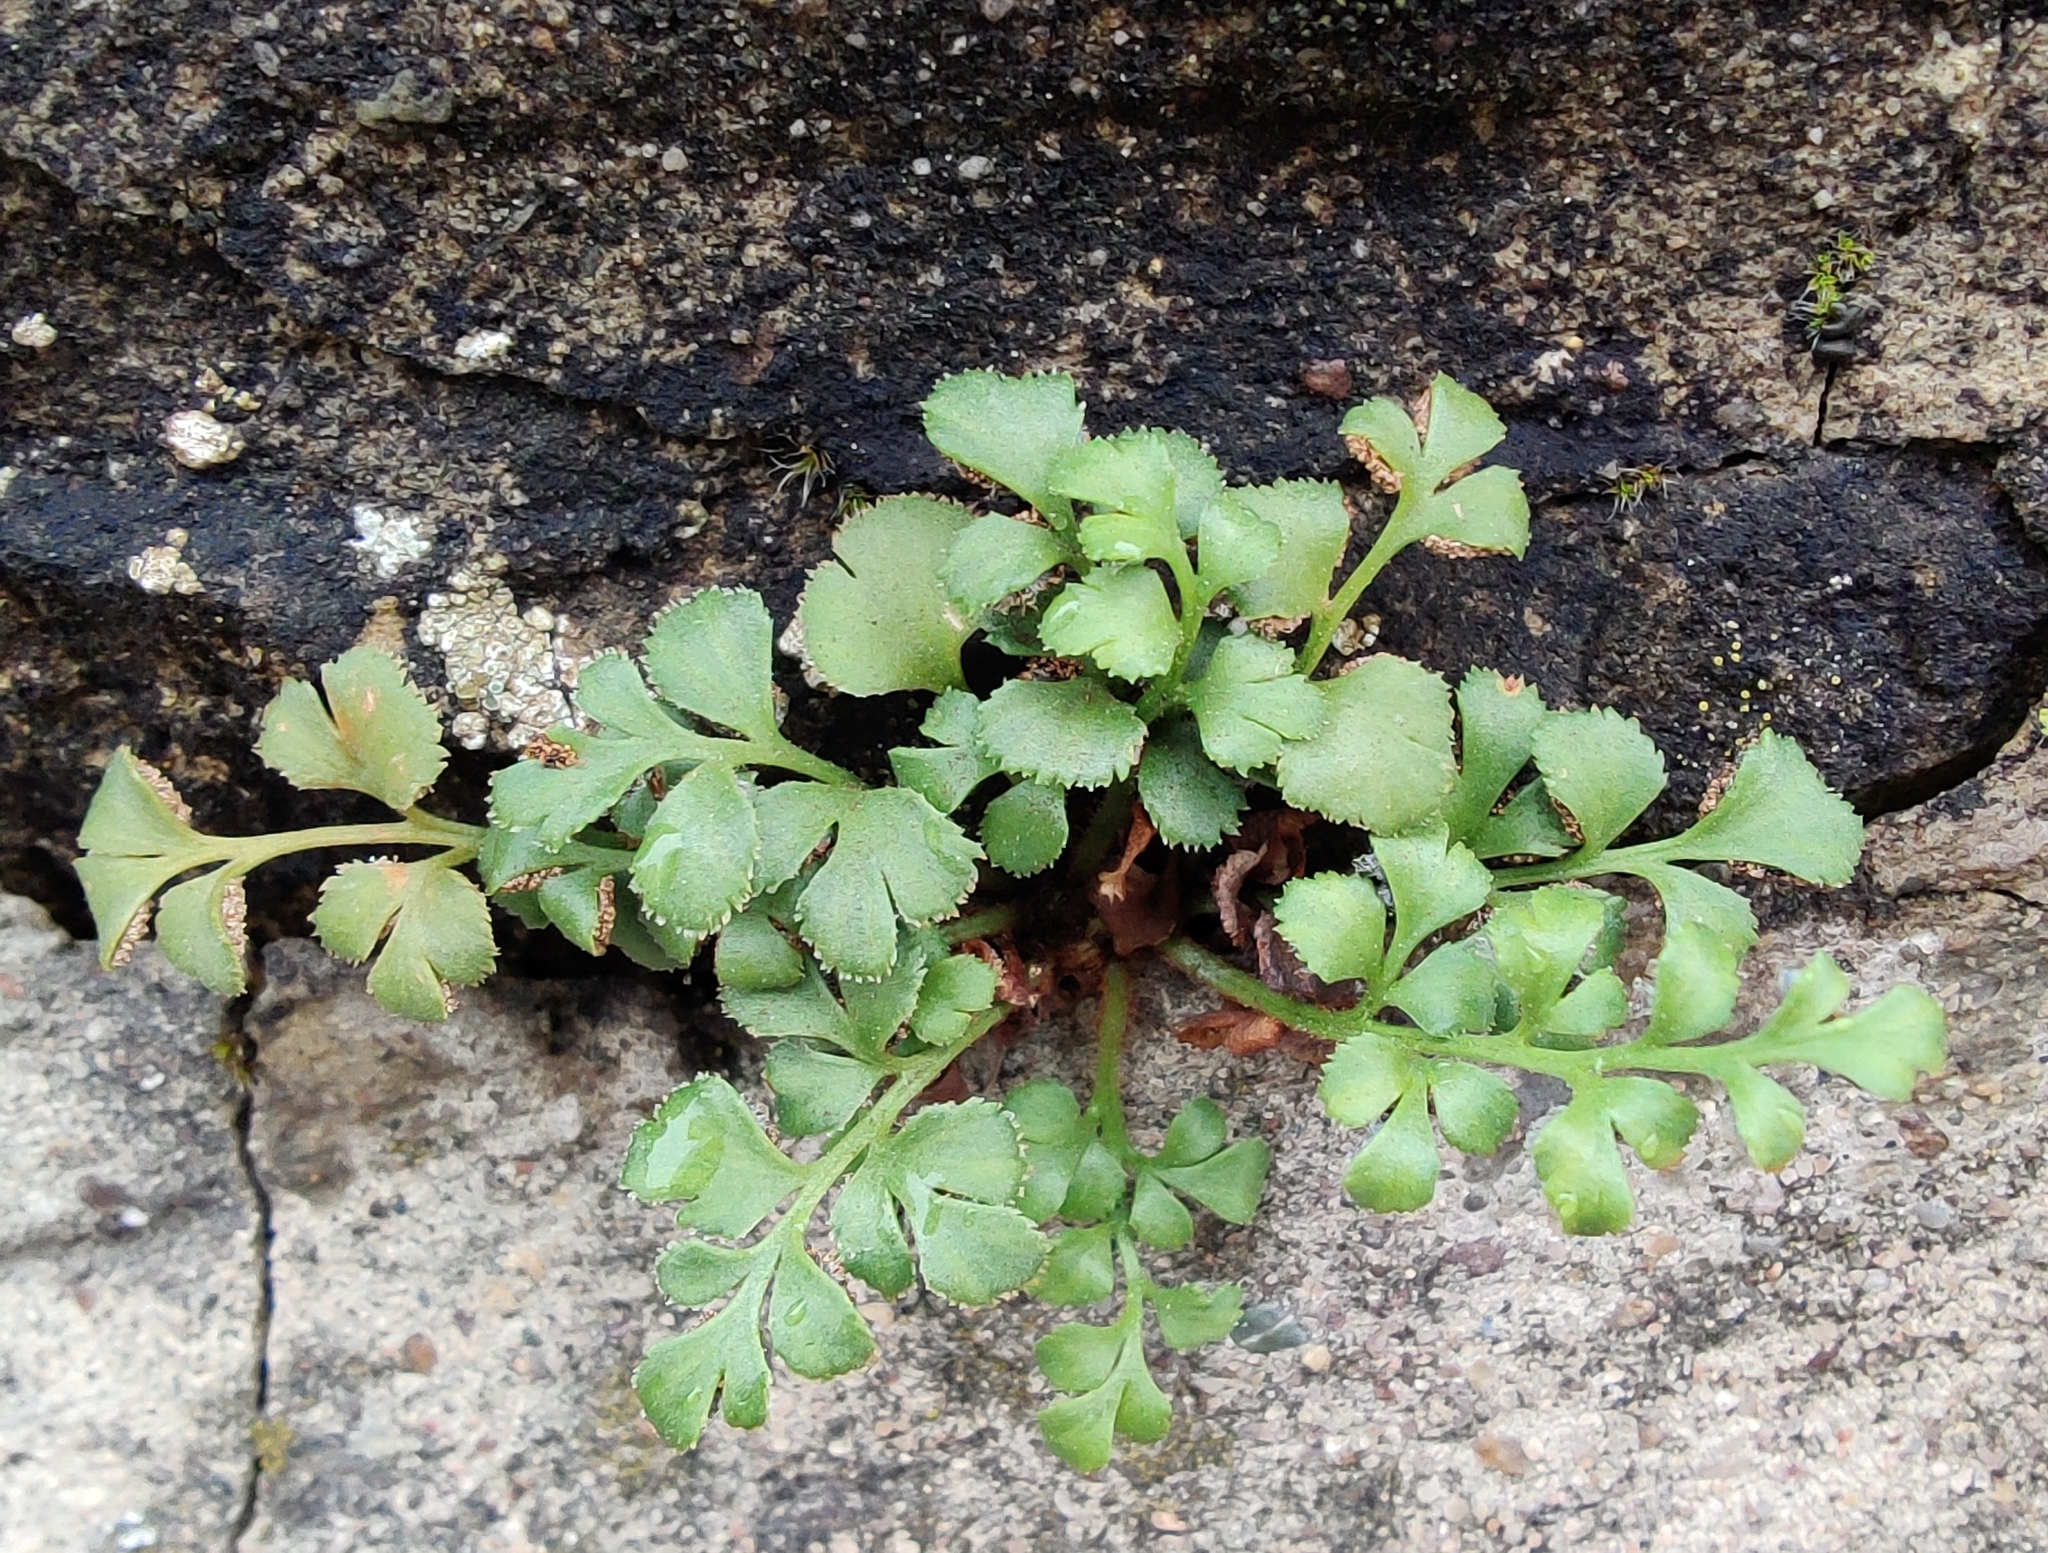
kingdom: Plantae
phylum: Tracheophyta
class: Polypodiopsida
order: Polypodiales
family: Aspleniaceae
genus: Asplenium
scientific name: Asplenium ruta-muraria
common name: Wall-rue
